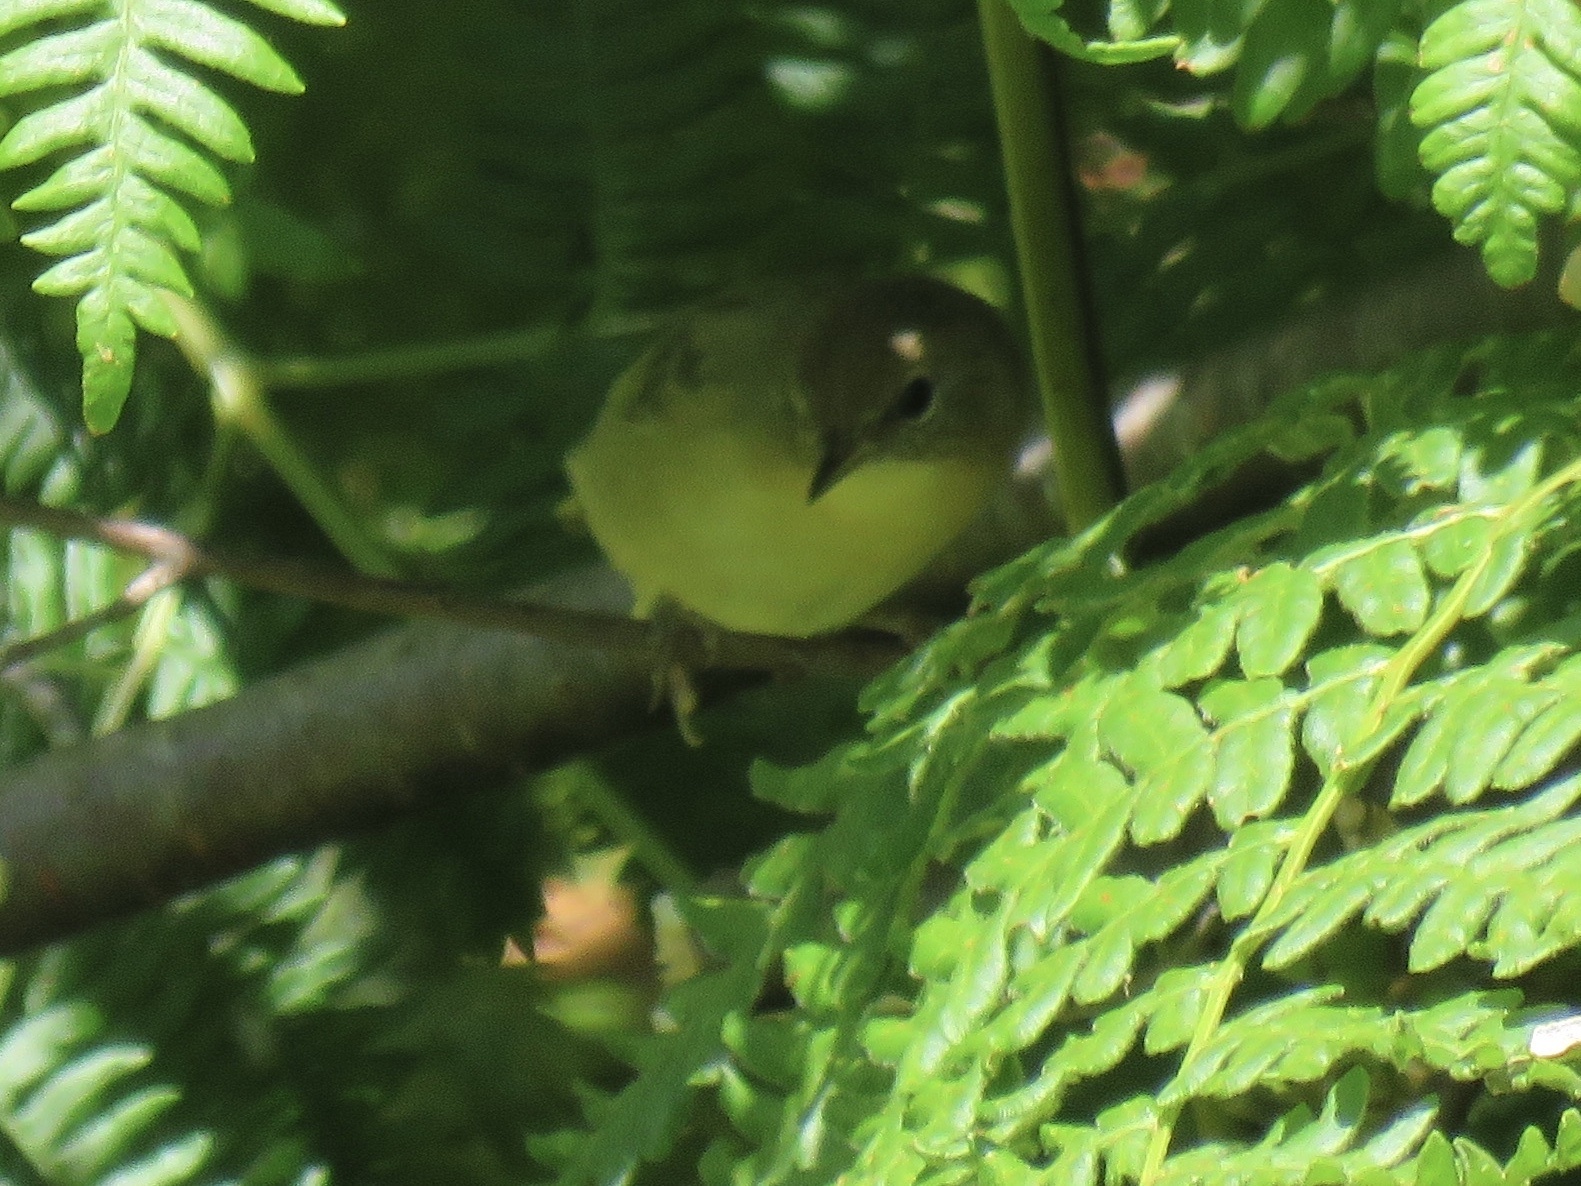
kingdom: Animalia
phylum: Chordata
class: Aves
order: Passeriformes
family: Parulidae
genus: Geothlypis
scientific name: Geothlypis trichas
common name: Common yellowthroat
